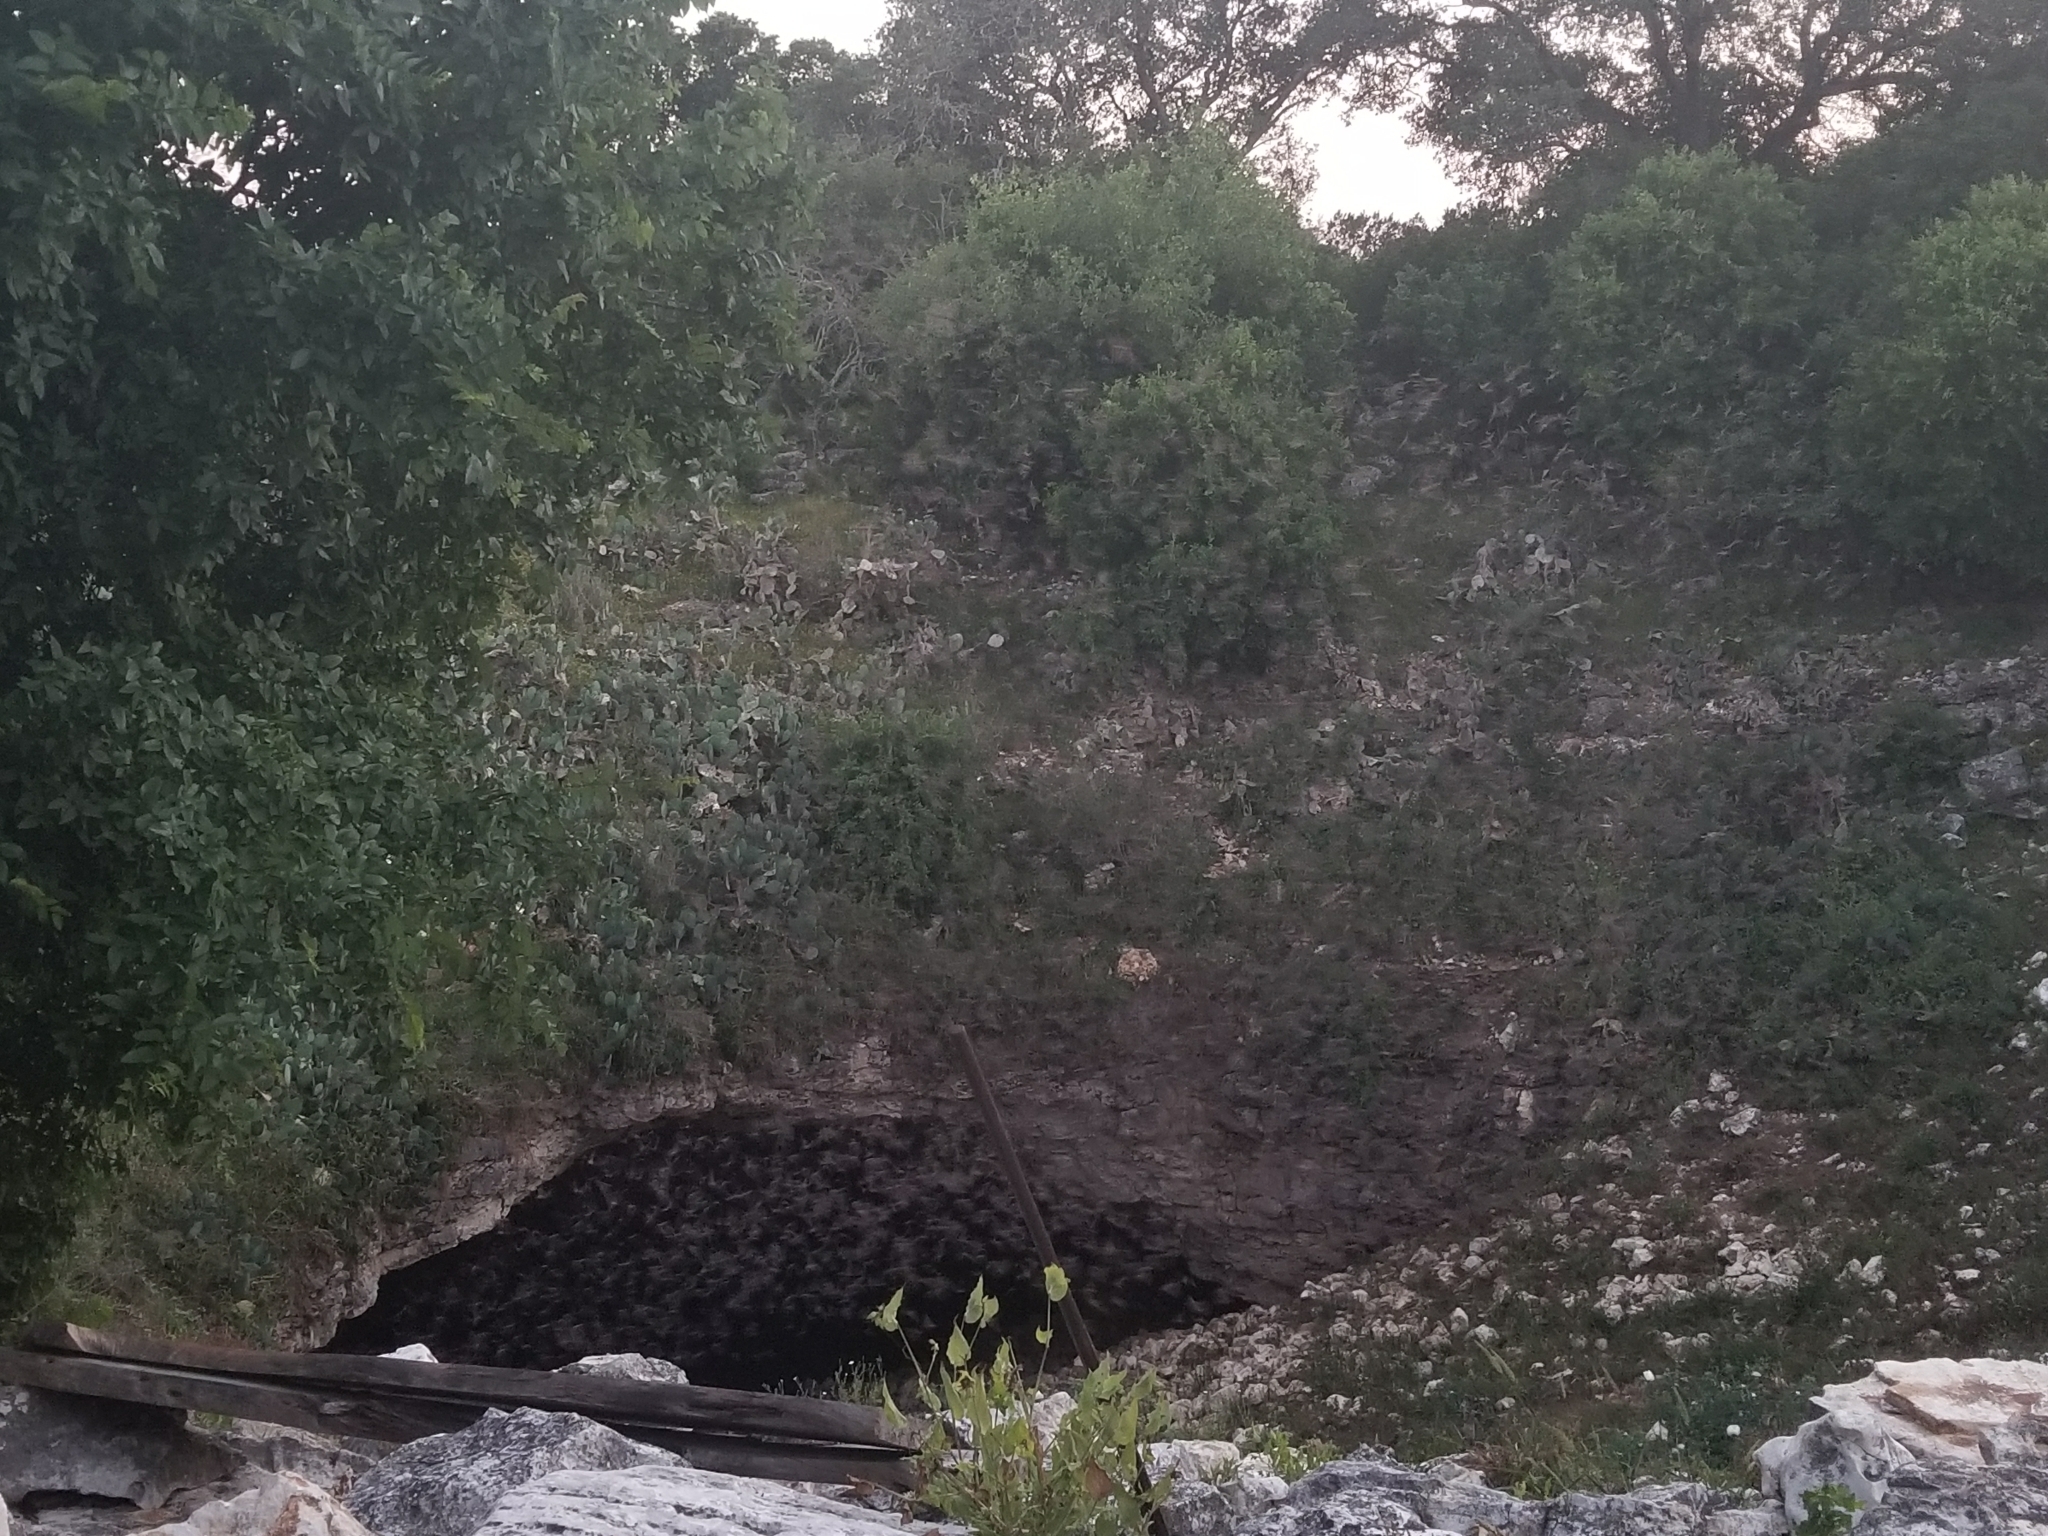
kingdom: Animalia
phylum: Chordata
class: Mammalia
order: Chiroptera
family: Molossidae
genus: Tadarida
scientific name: Tadarida brasiliensis
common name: Mexican free-tailed bat
